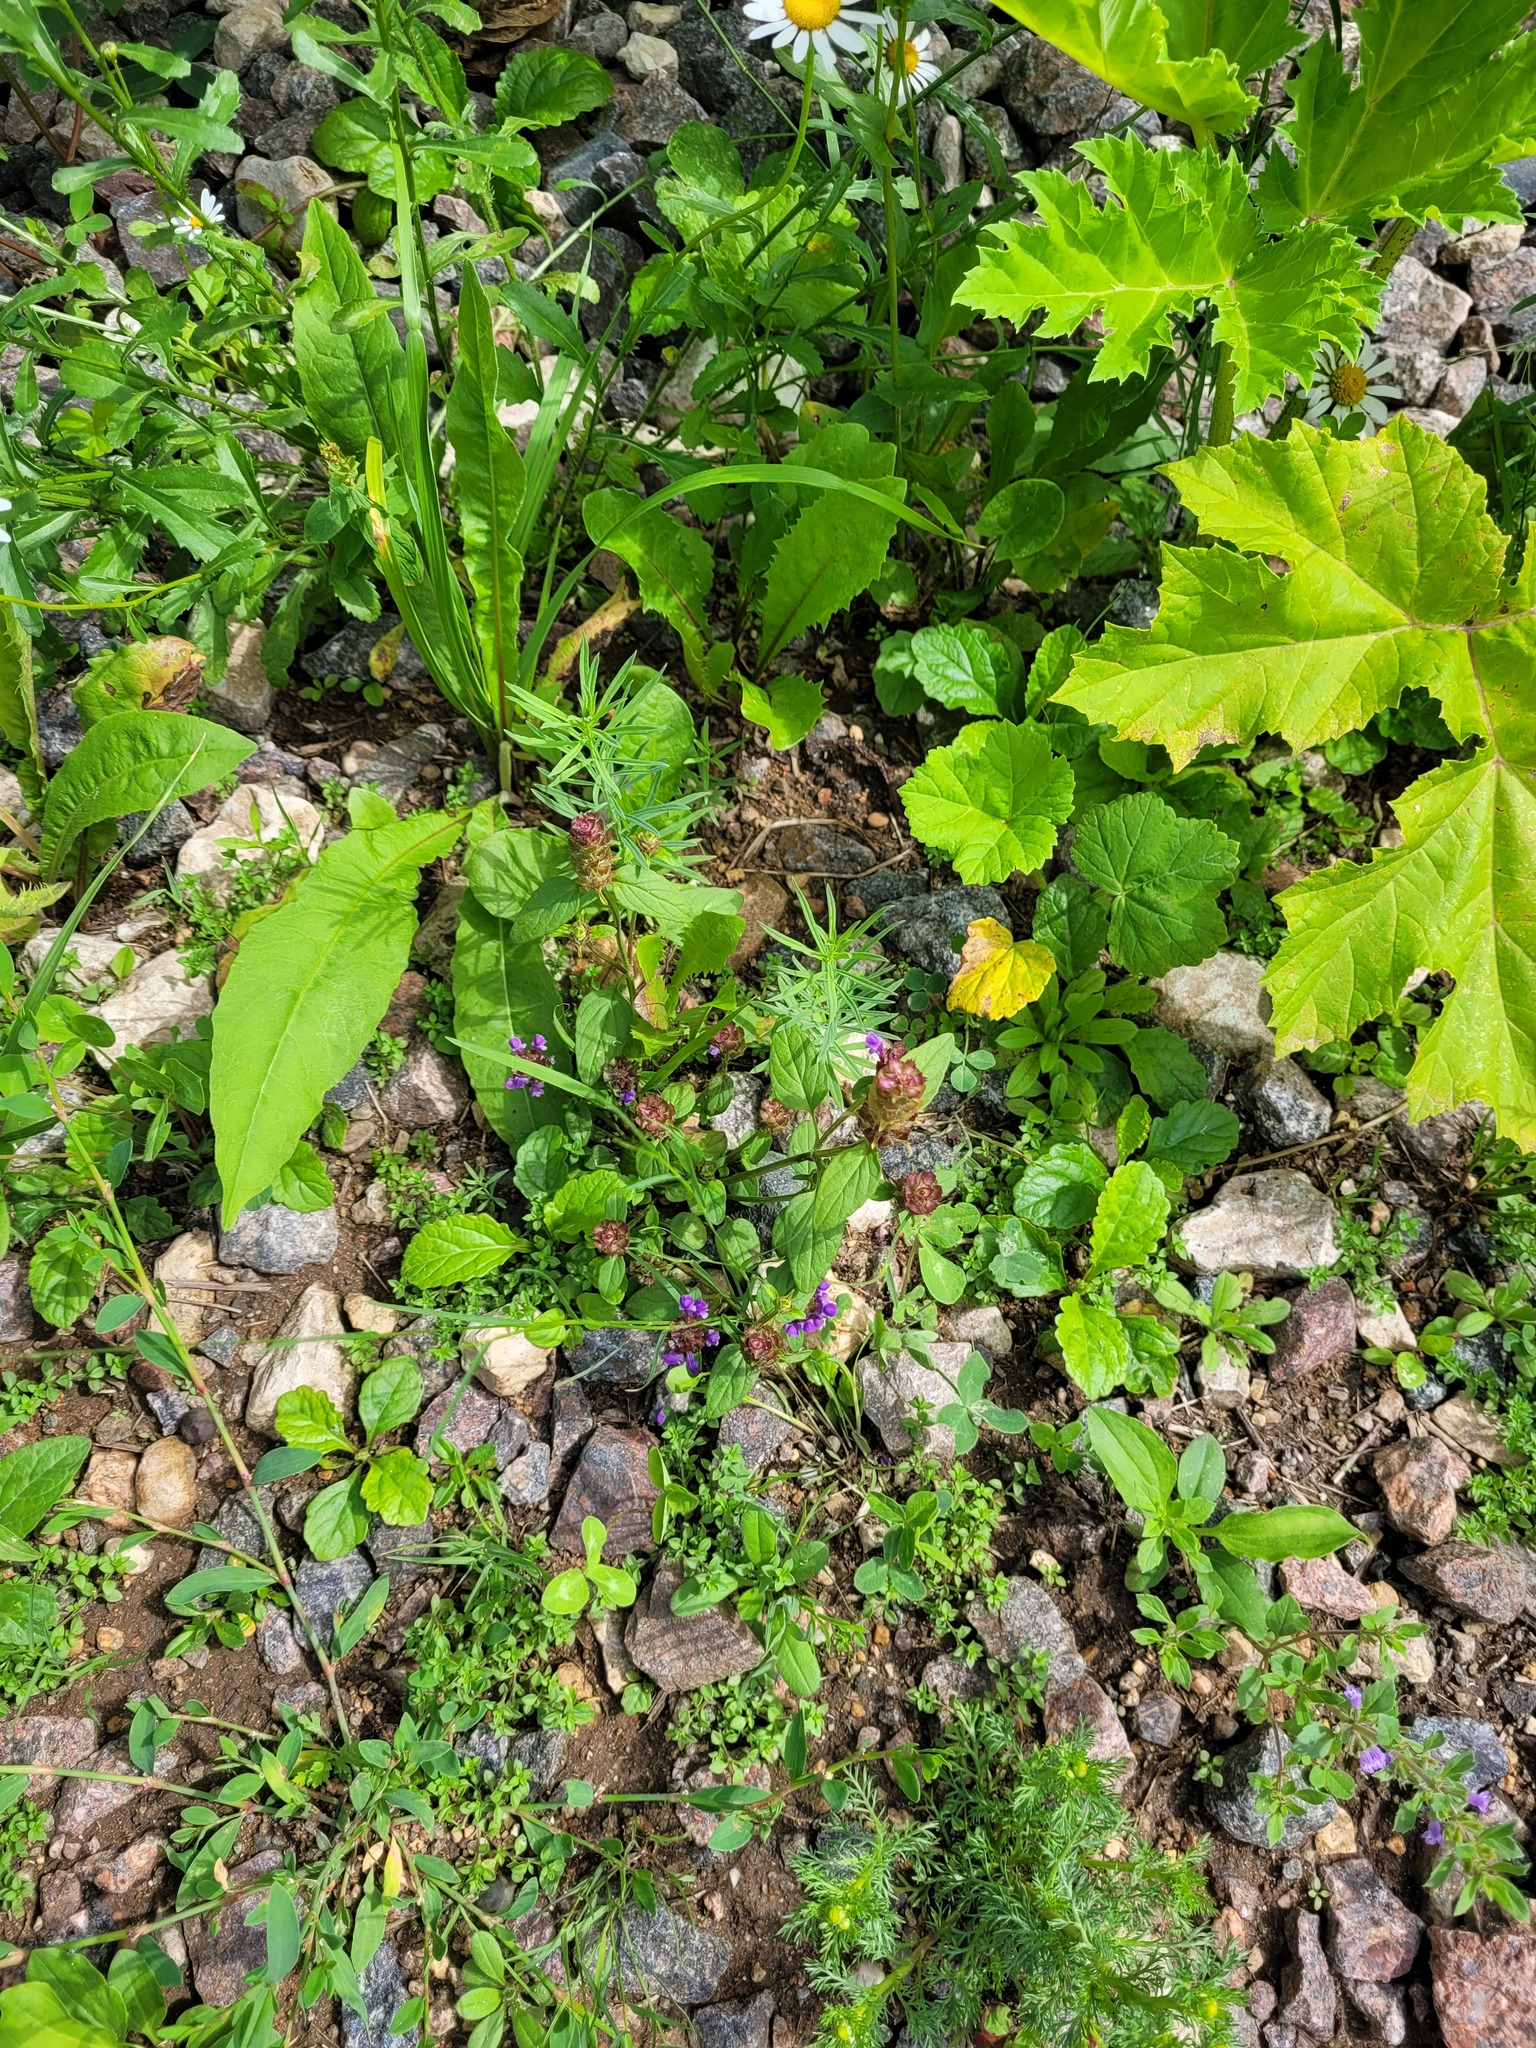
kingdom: Plantae
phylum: Tracheophyta
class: Magnoliopsida
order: Lamiales
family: Lamiaceae
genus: Prunella
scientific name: Prunella vulgaris
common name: Heal-all
